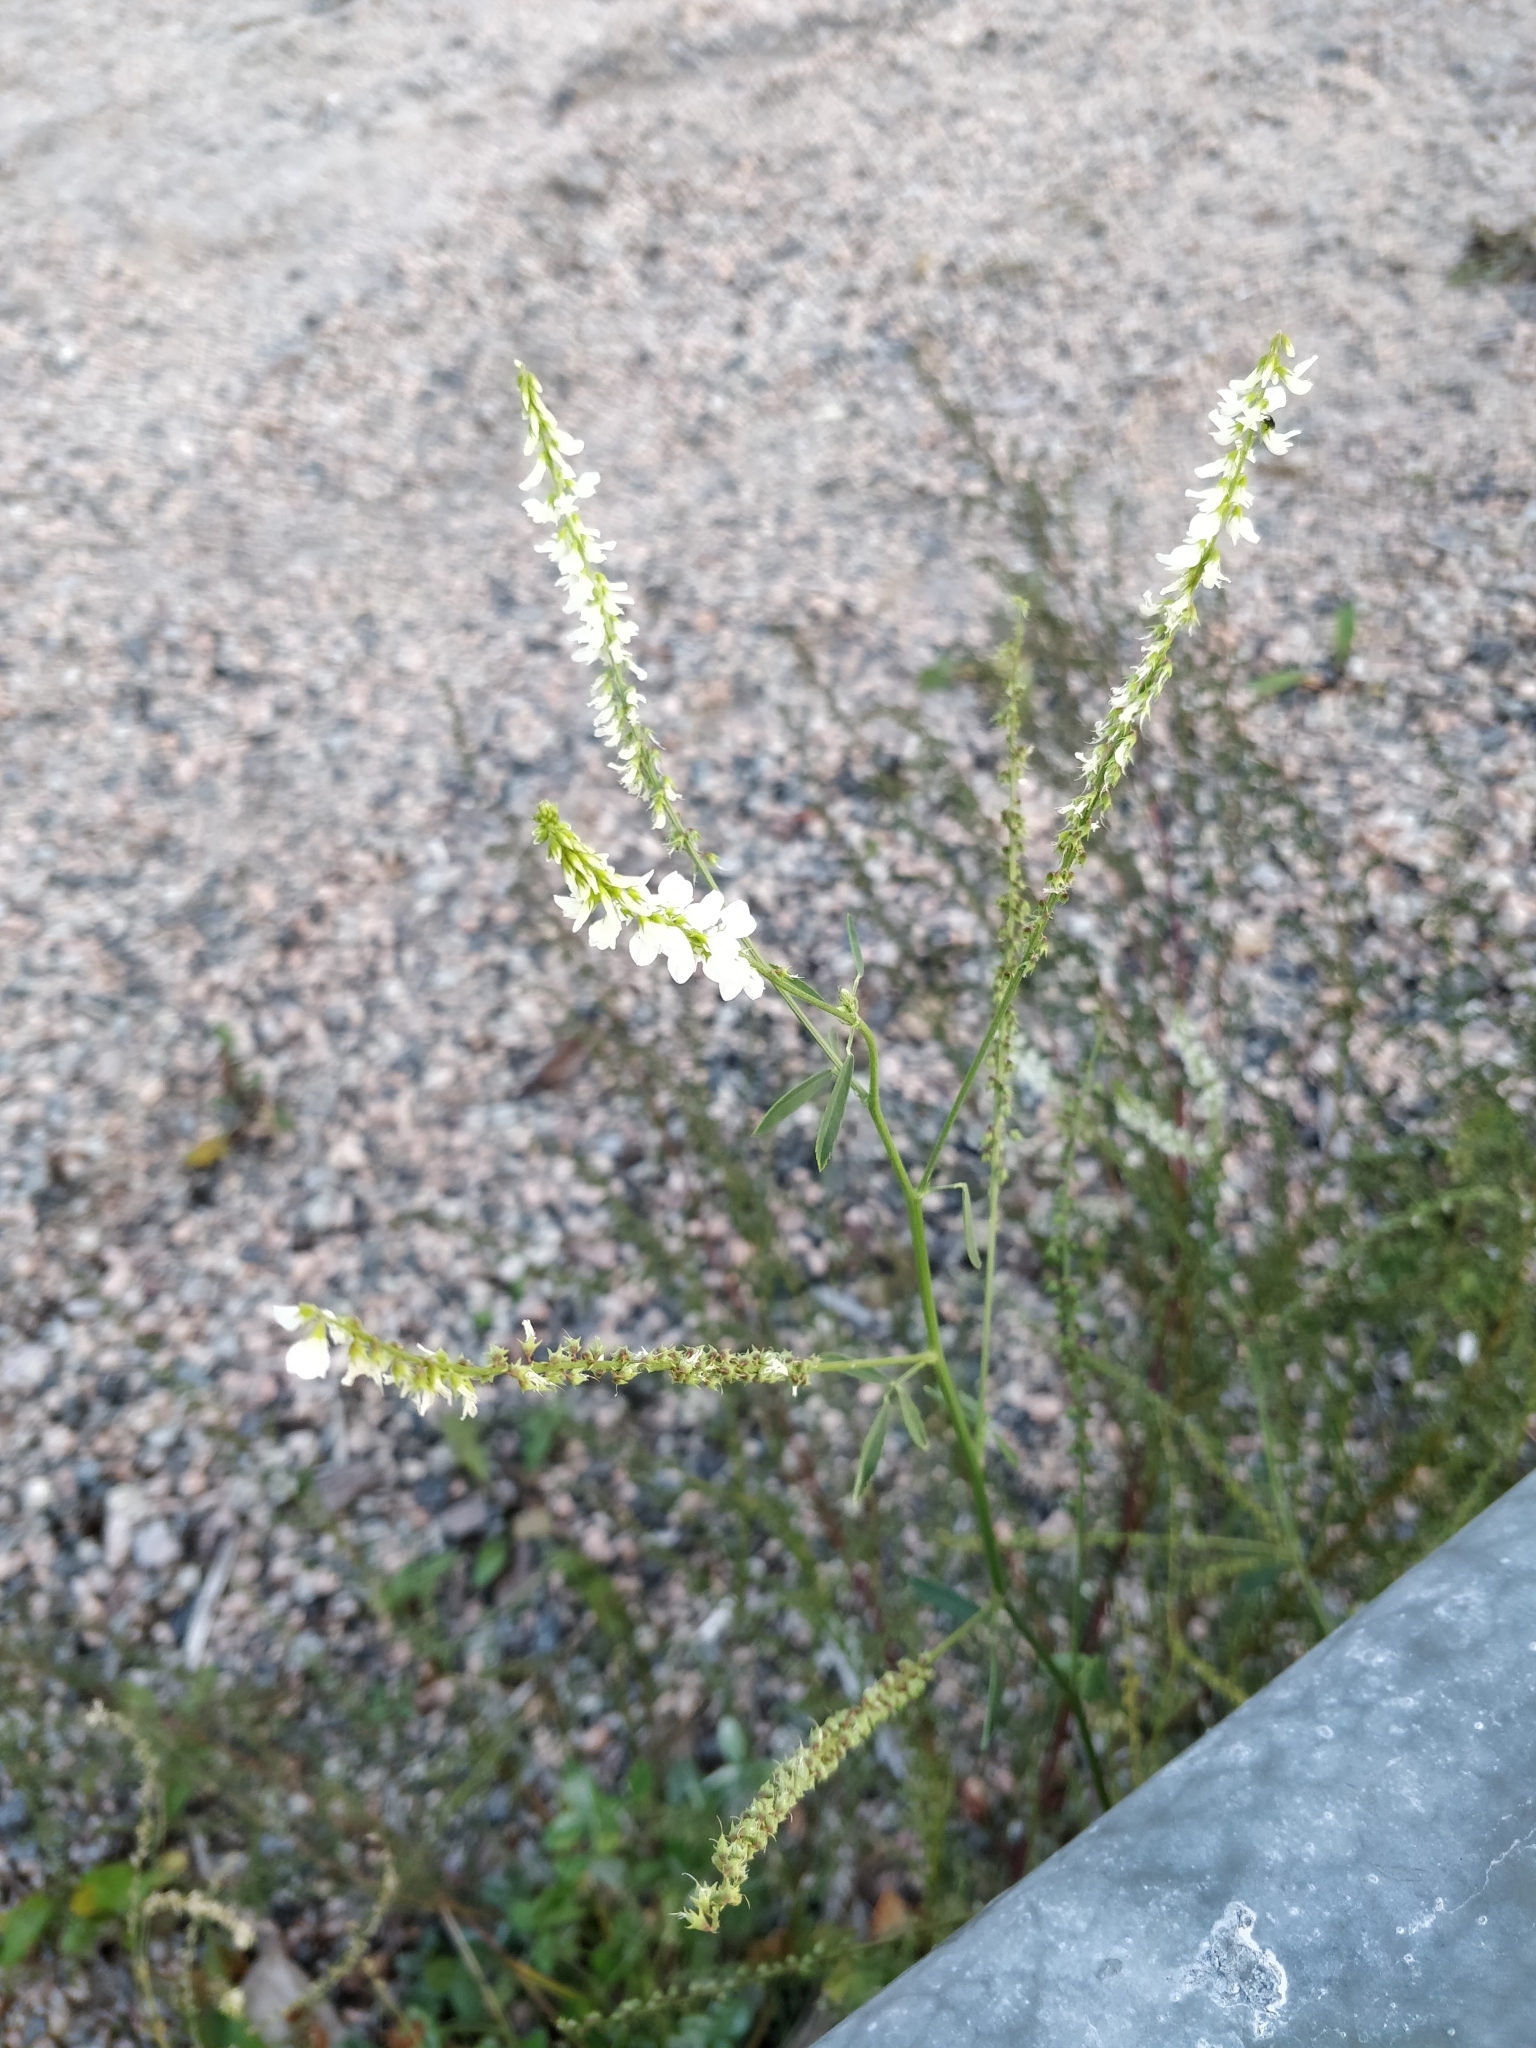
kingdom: Plantae
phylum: Tracheophyta
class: Magnoliopsida
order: Fabales
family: Fabaceae
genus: Melilotus
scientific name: Melilotus albus
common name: White melilot
